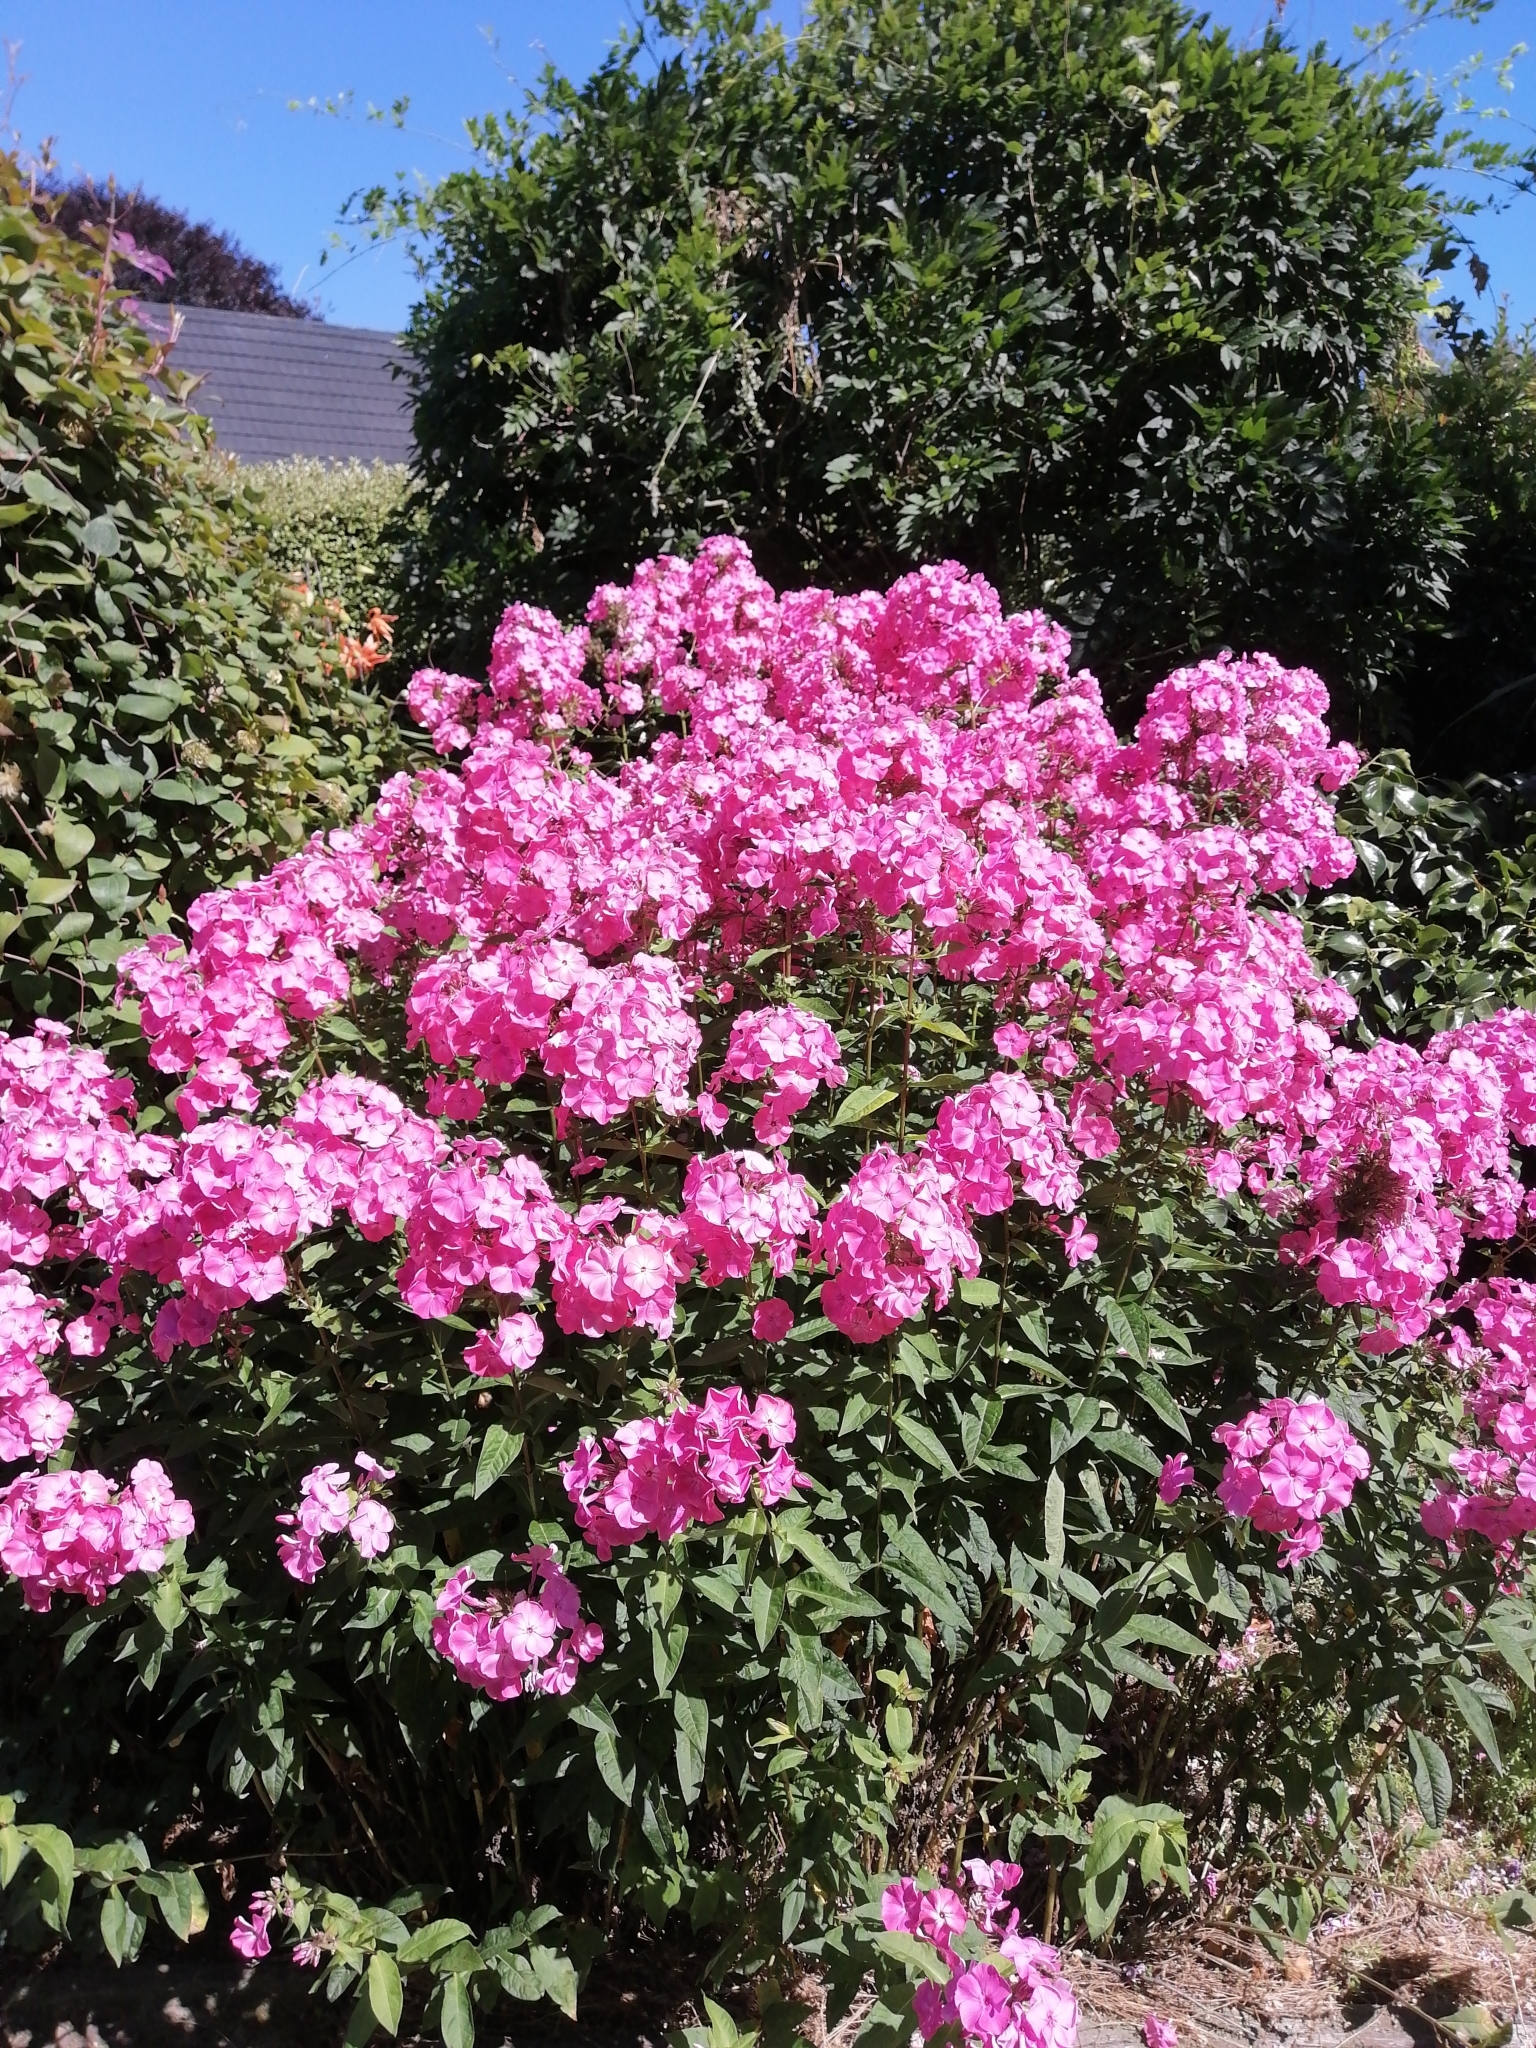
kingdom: Plantae
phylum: Tracheophyta
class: Magnoliopsida
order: Ericales
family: Polemoniaceae
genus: Phlox
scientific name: Phlox paniculata
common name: Fall phlox
